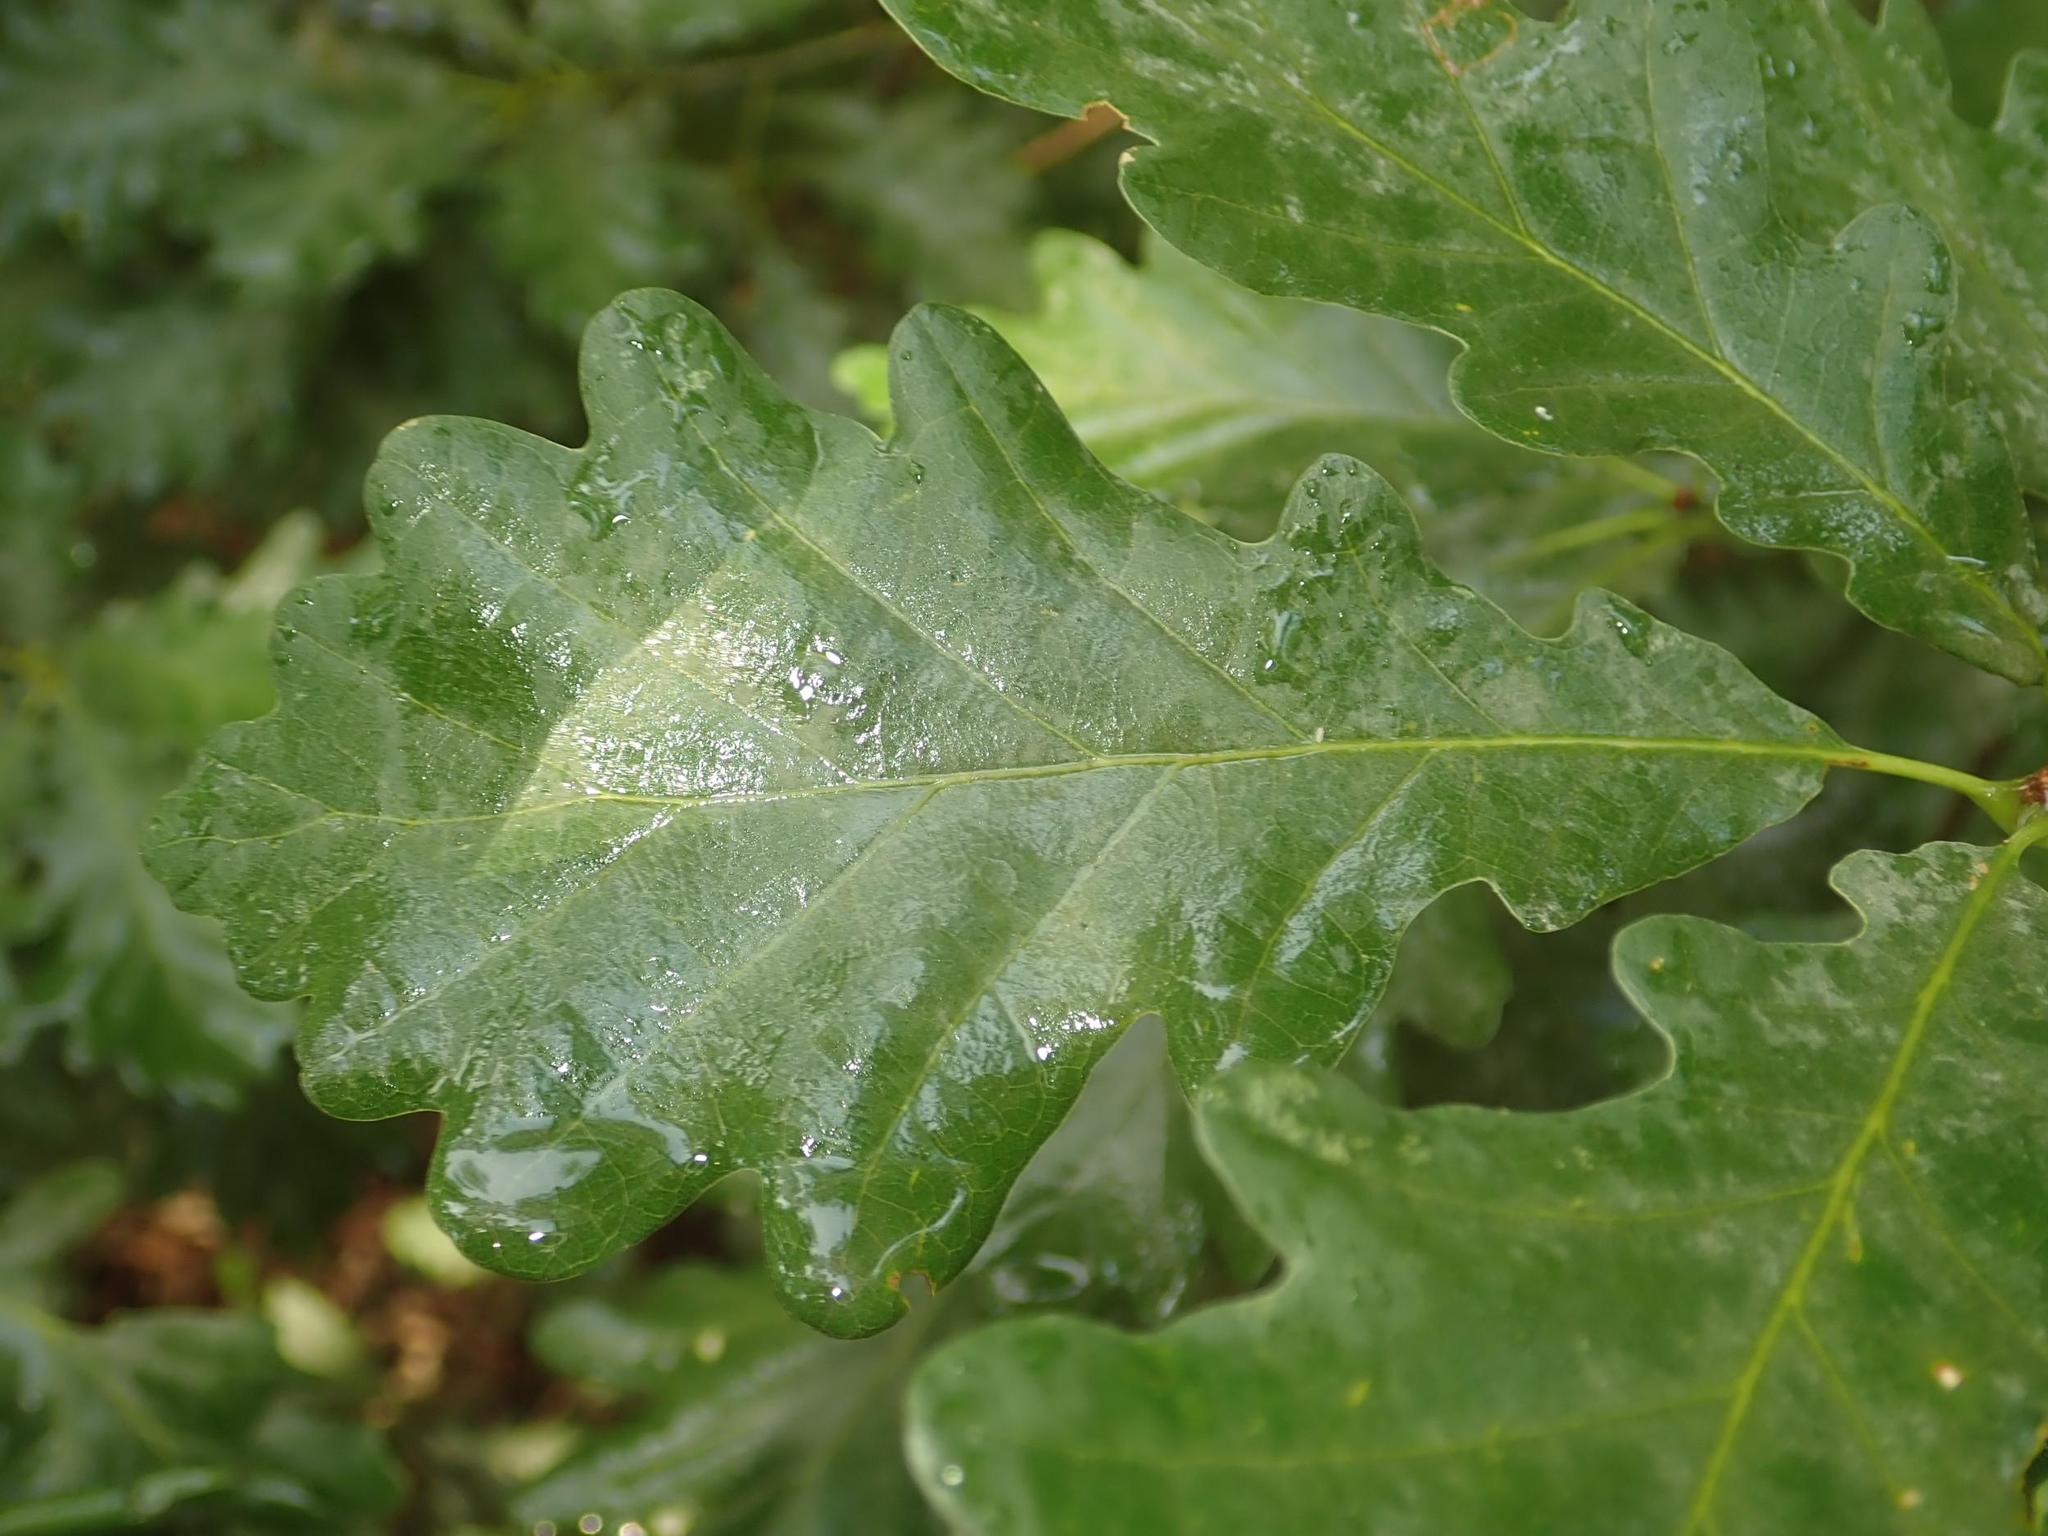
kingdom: Plantae
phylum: Tracheophyta
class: Magnoliopsida
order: Fagales
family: Fagaceae
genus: Quercus
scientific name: Quercus robur
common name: Pedunculate oak
